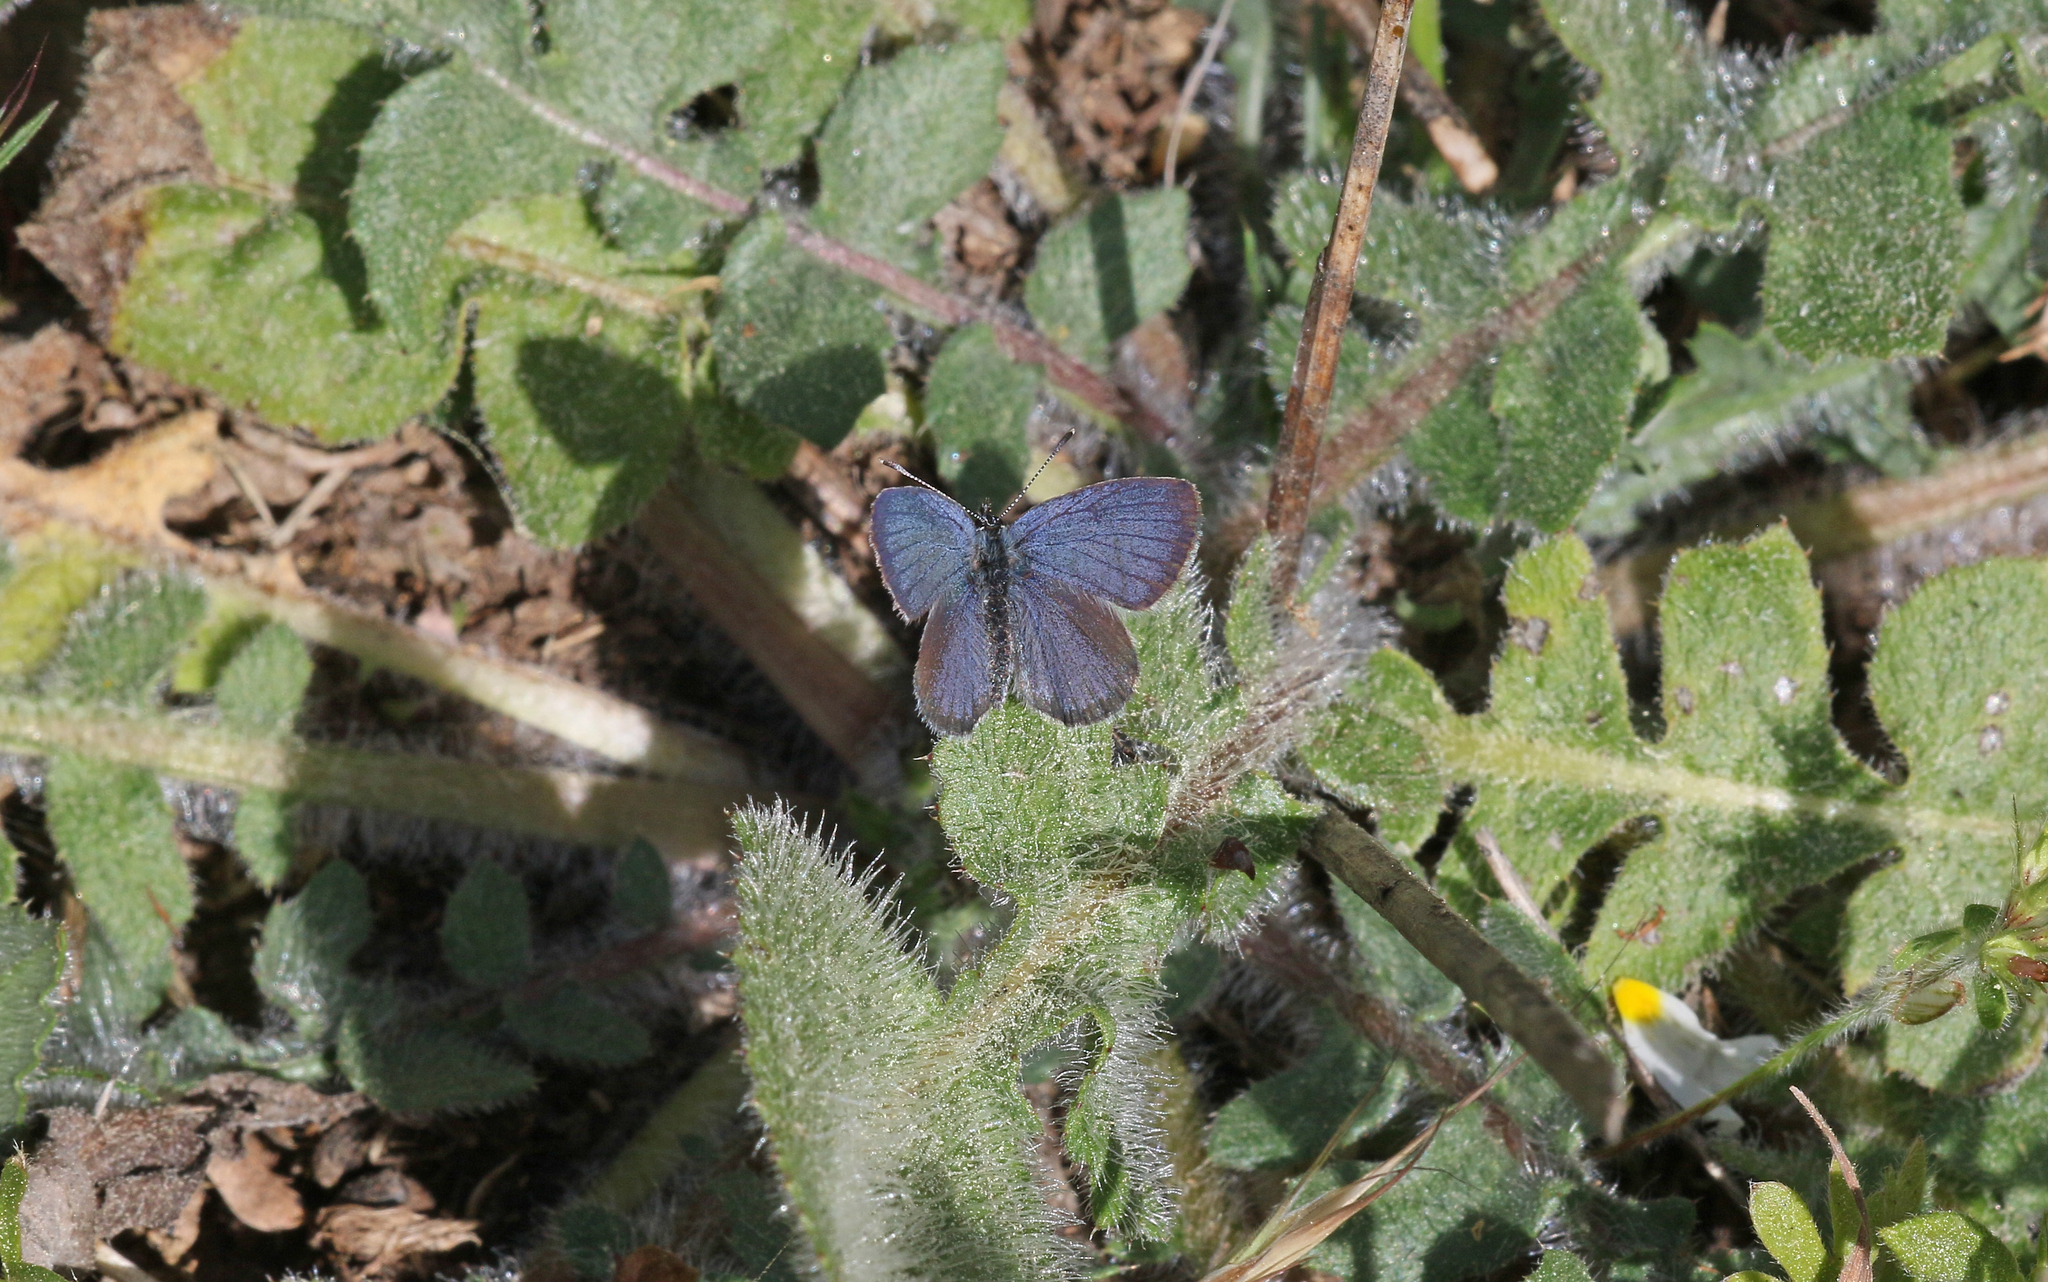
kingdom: Animalia
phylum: Arthropoda
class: Insecta
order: Lepidoptera
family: Lycaenidae
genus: Cupido
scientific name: Cupido lorquinii
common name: Lorquin’s blue
